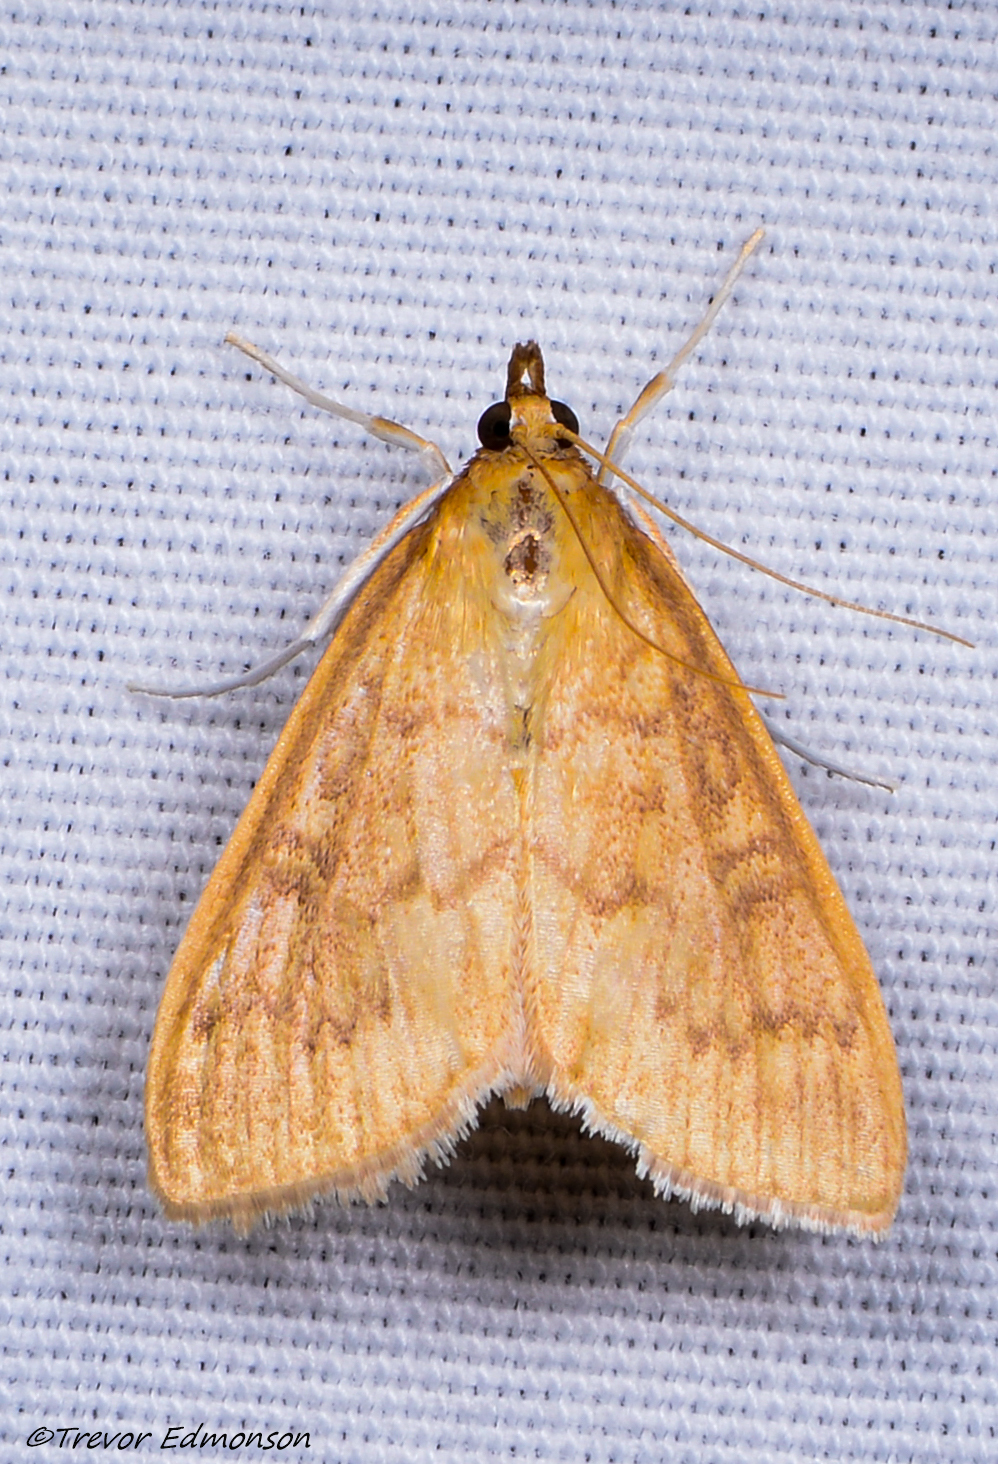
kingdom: Animalia
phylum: Arthropoda
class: Insecta
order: Lepidoptera
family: Crambidae
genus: Anania
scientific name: Anania Framinghamia helvalis
